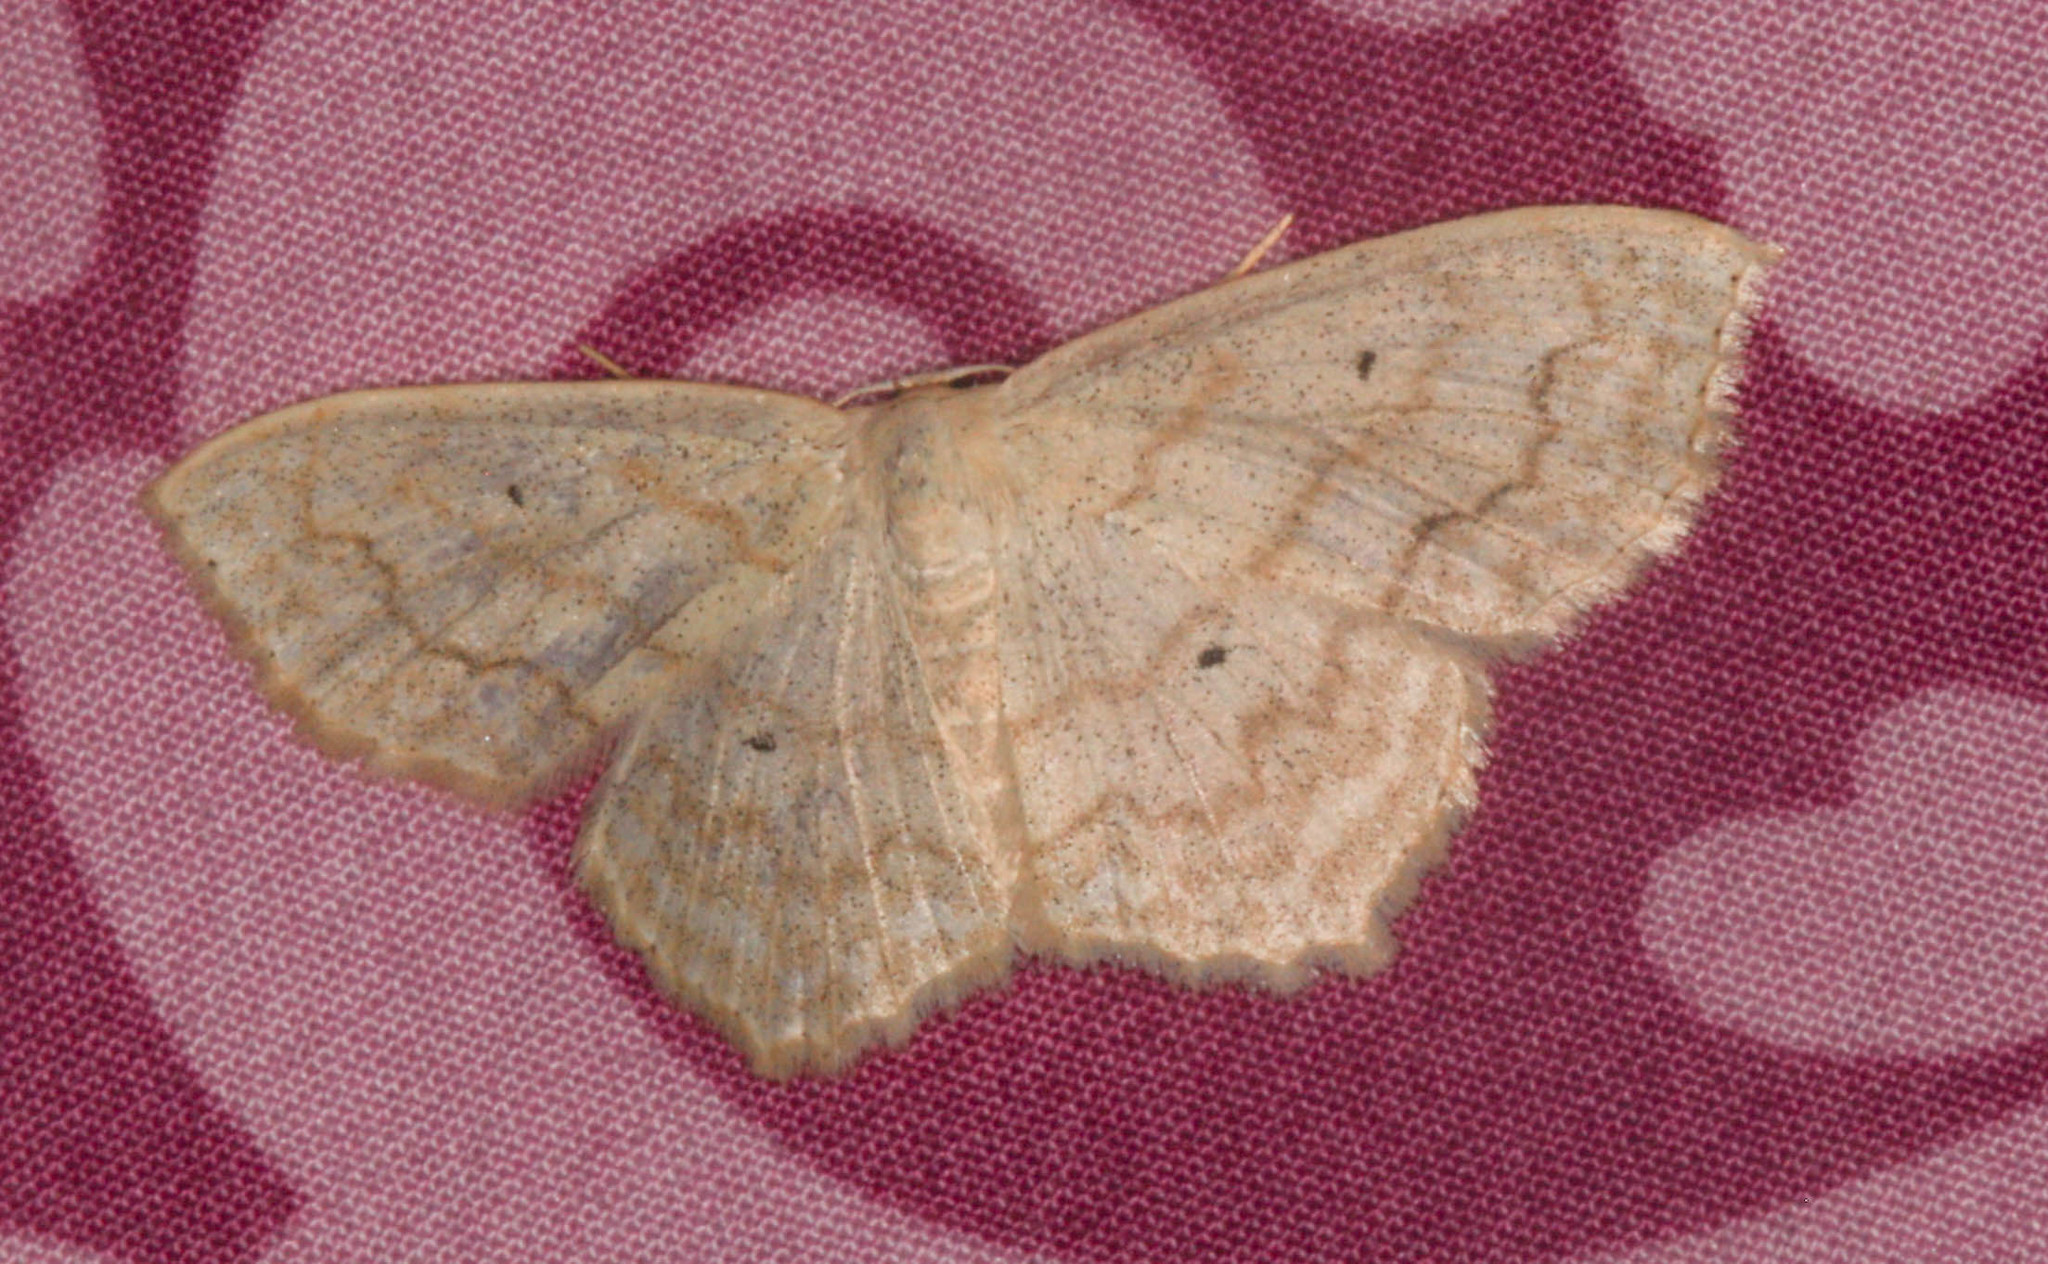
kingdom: Animalia
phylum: Arthropoda
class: Insecta
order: Lepidoptera
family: Geometridae
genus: Scopula
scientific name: Scopula limboundata
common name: Large lace border
